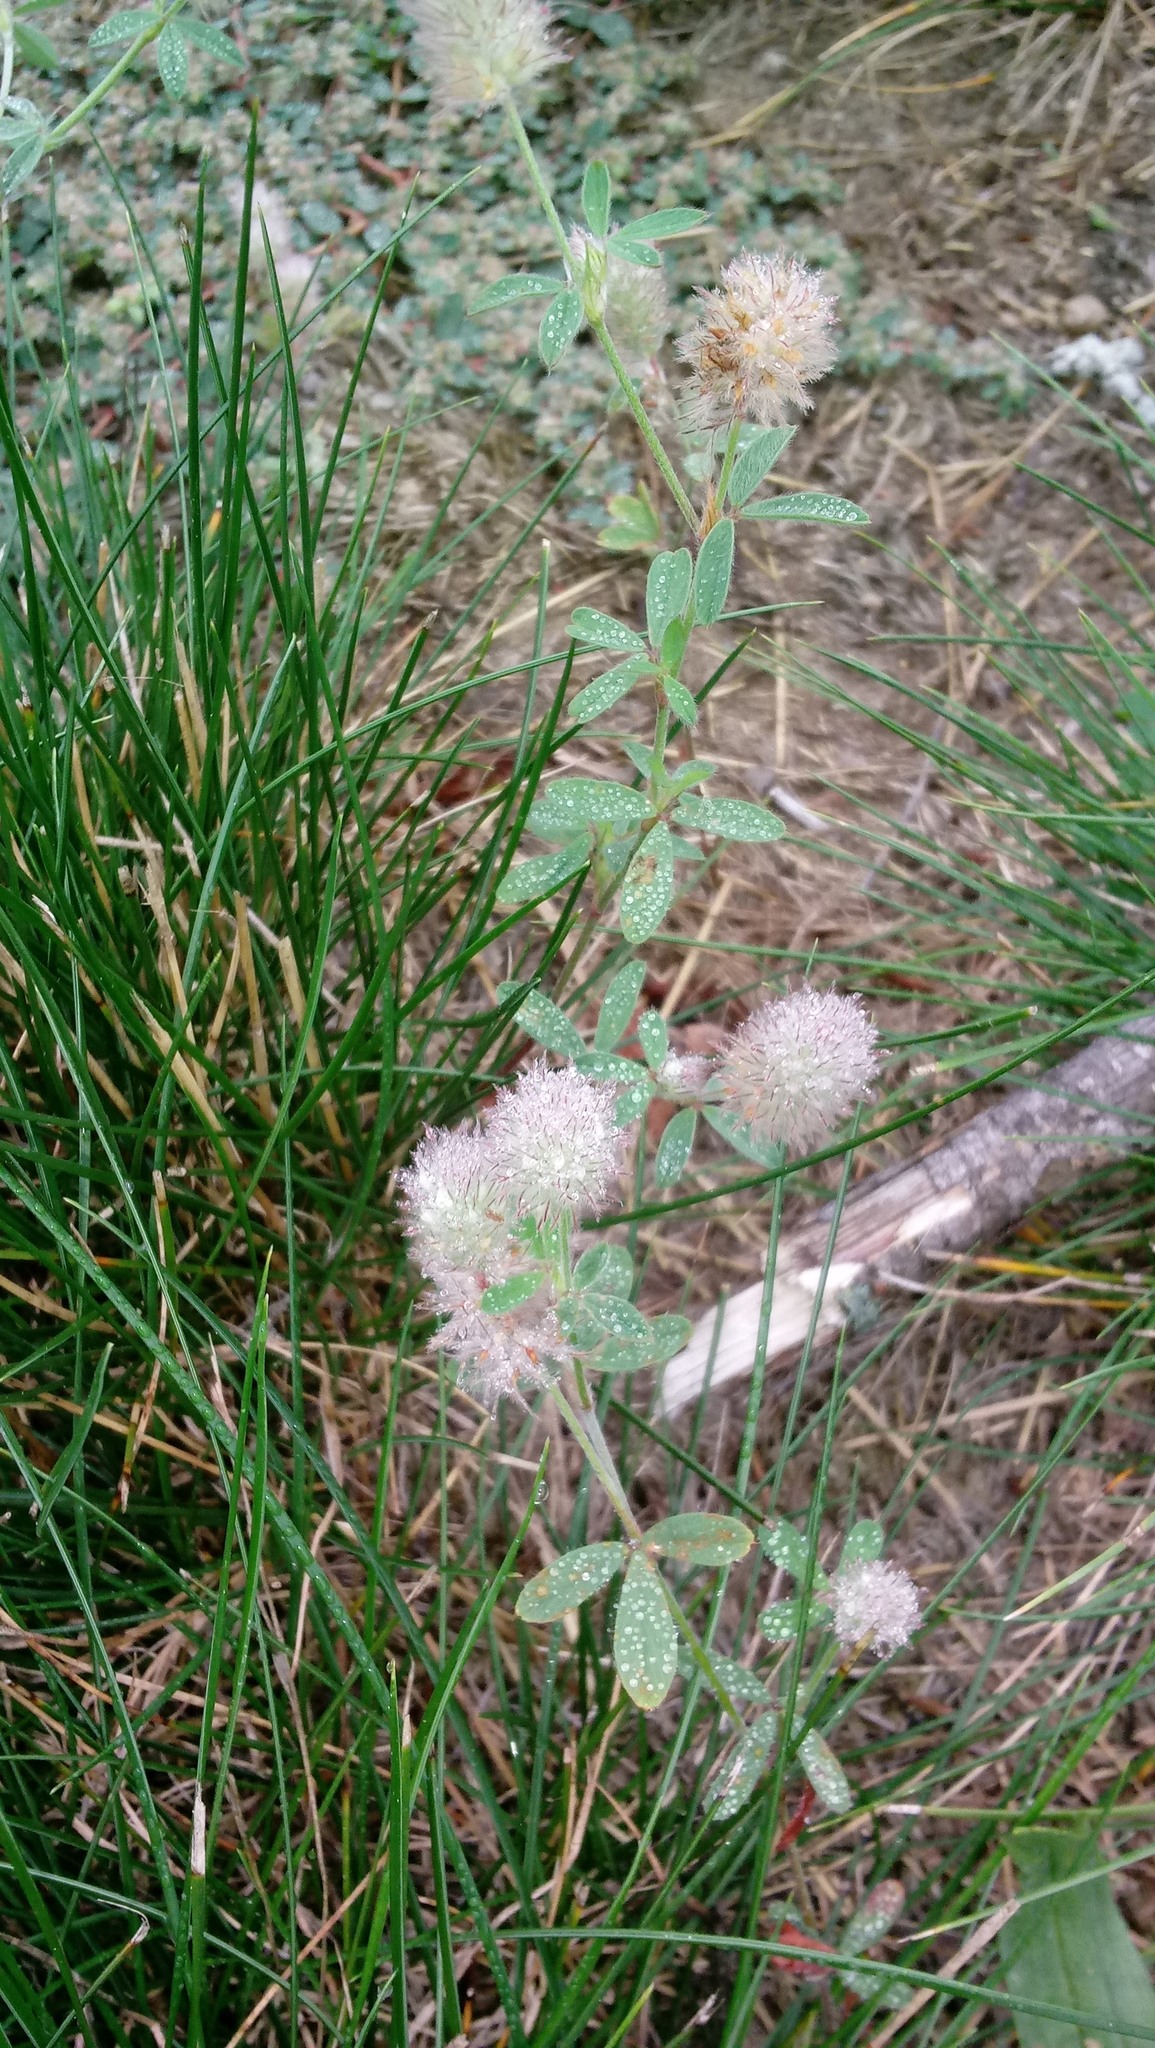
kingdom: Plantae
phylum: Tracheophyta
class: Magnoliopsida
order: Fabales
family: Fabaceae
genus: Trifolium
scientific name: Trifolium arvense
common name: Hare's-foot clover
